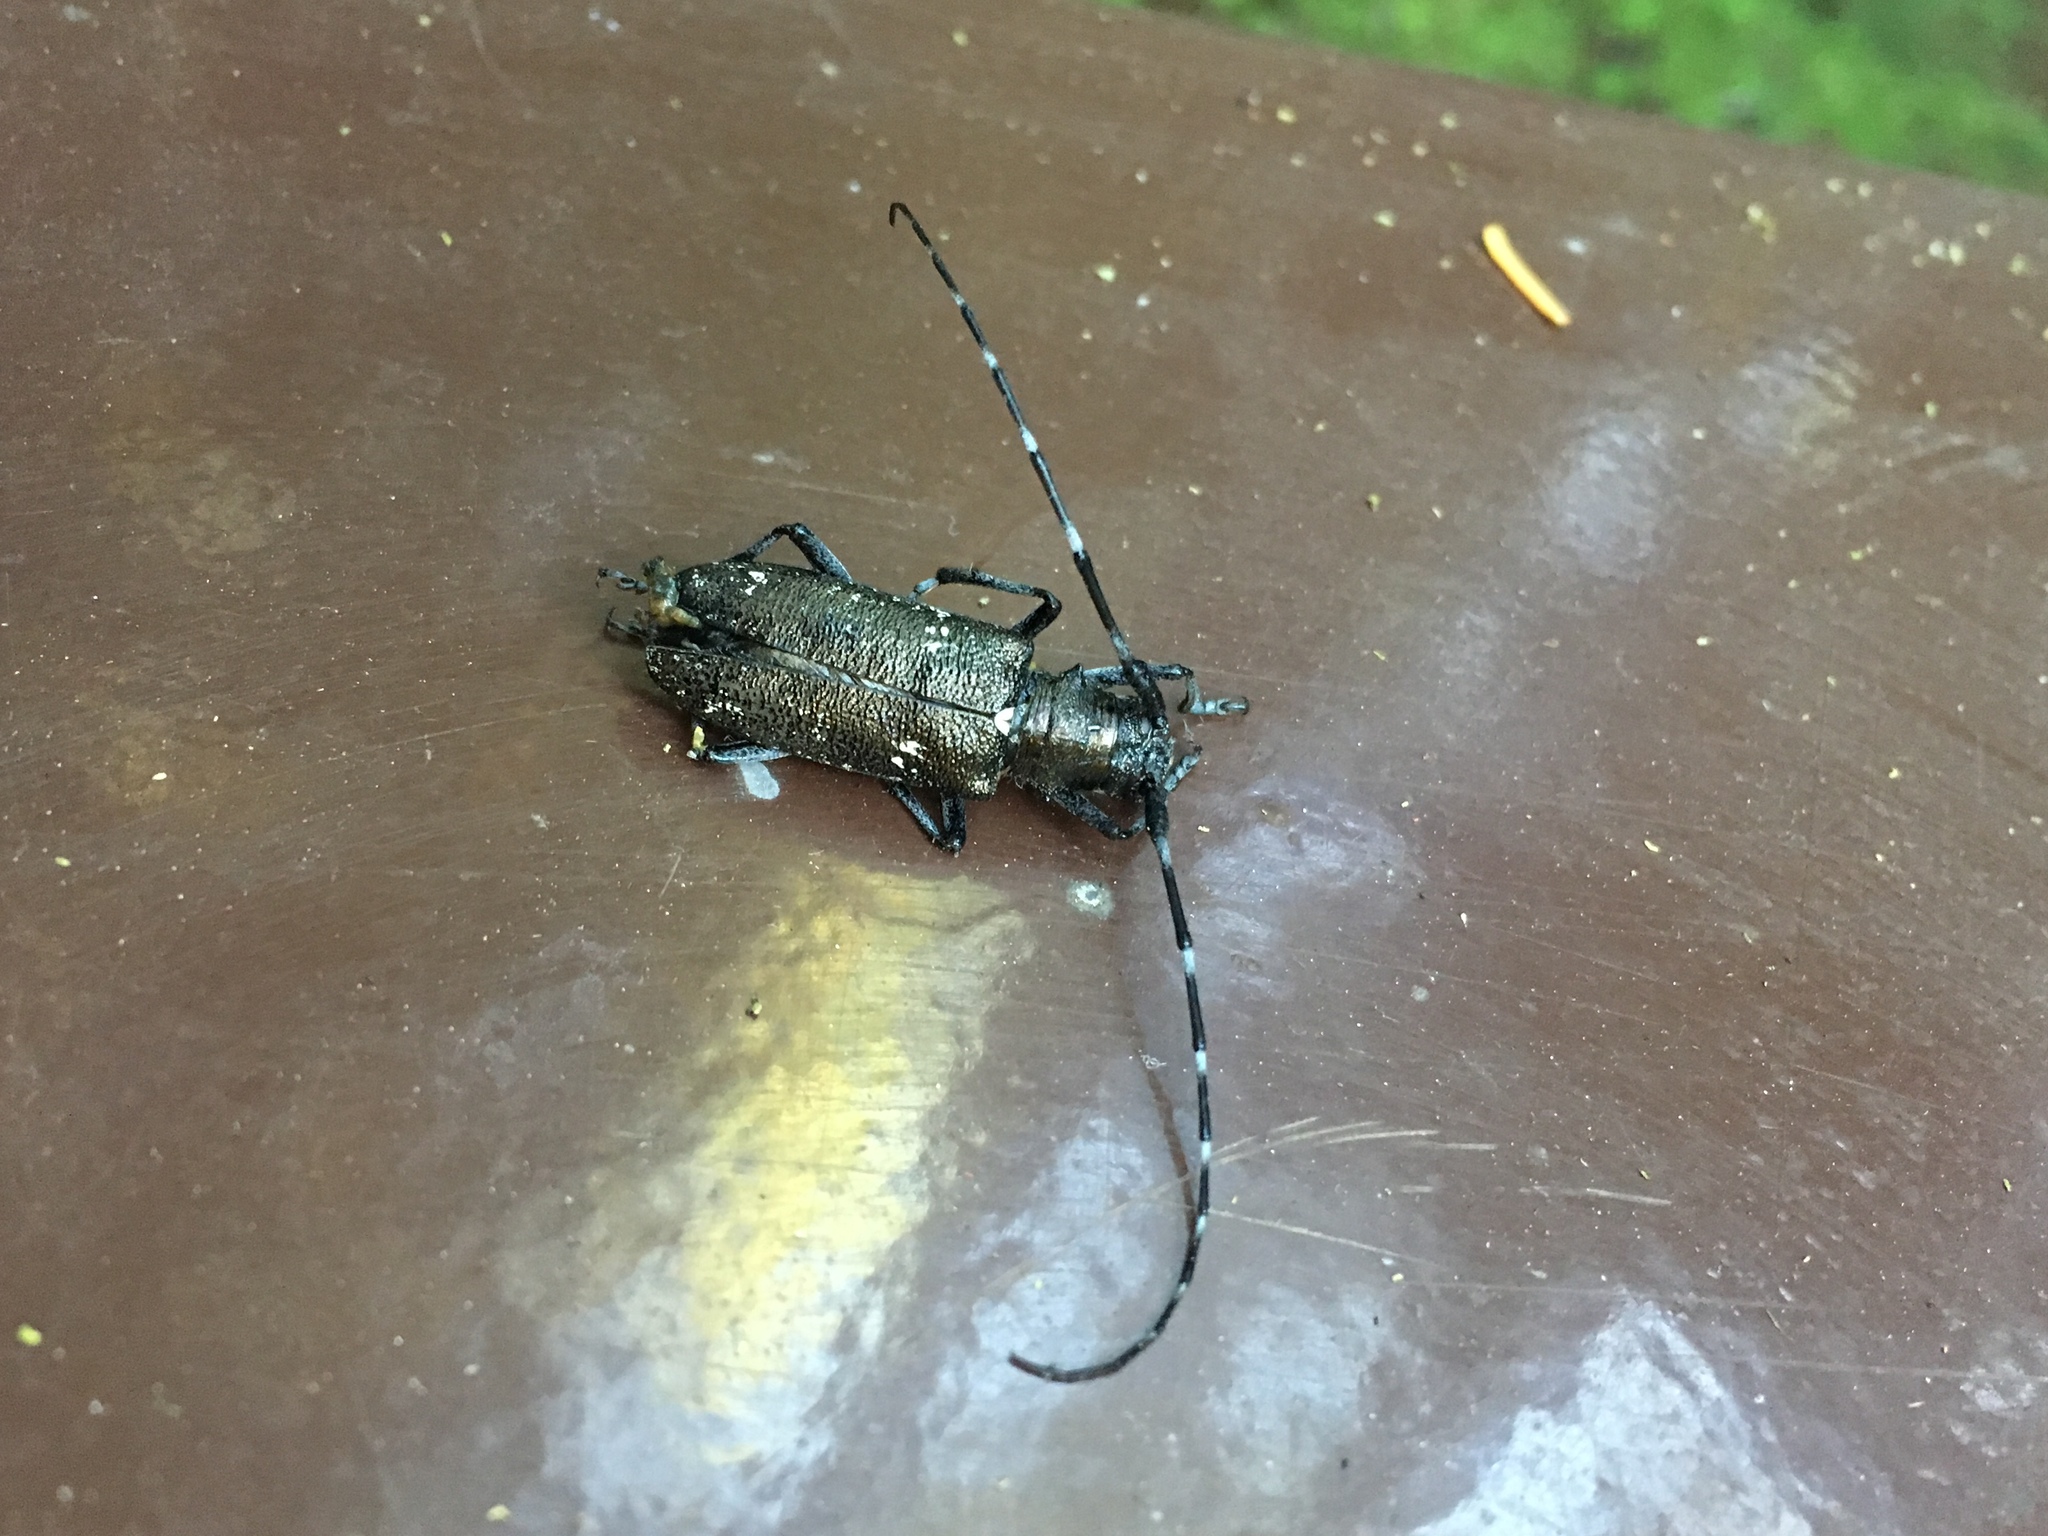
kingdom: Animalia
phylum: Arthropoda
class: Insecta
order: Coleoptera
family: Cerambycidae
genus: Monochamus
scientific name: Monochamus scutellatus
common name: White-spotted sawyer beetle
